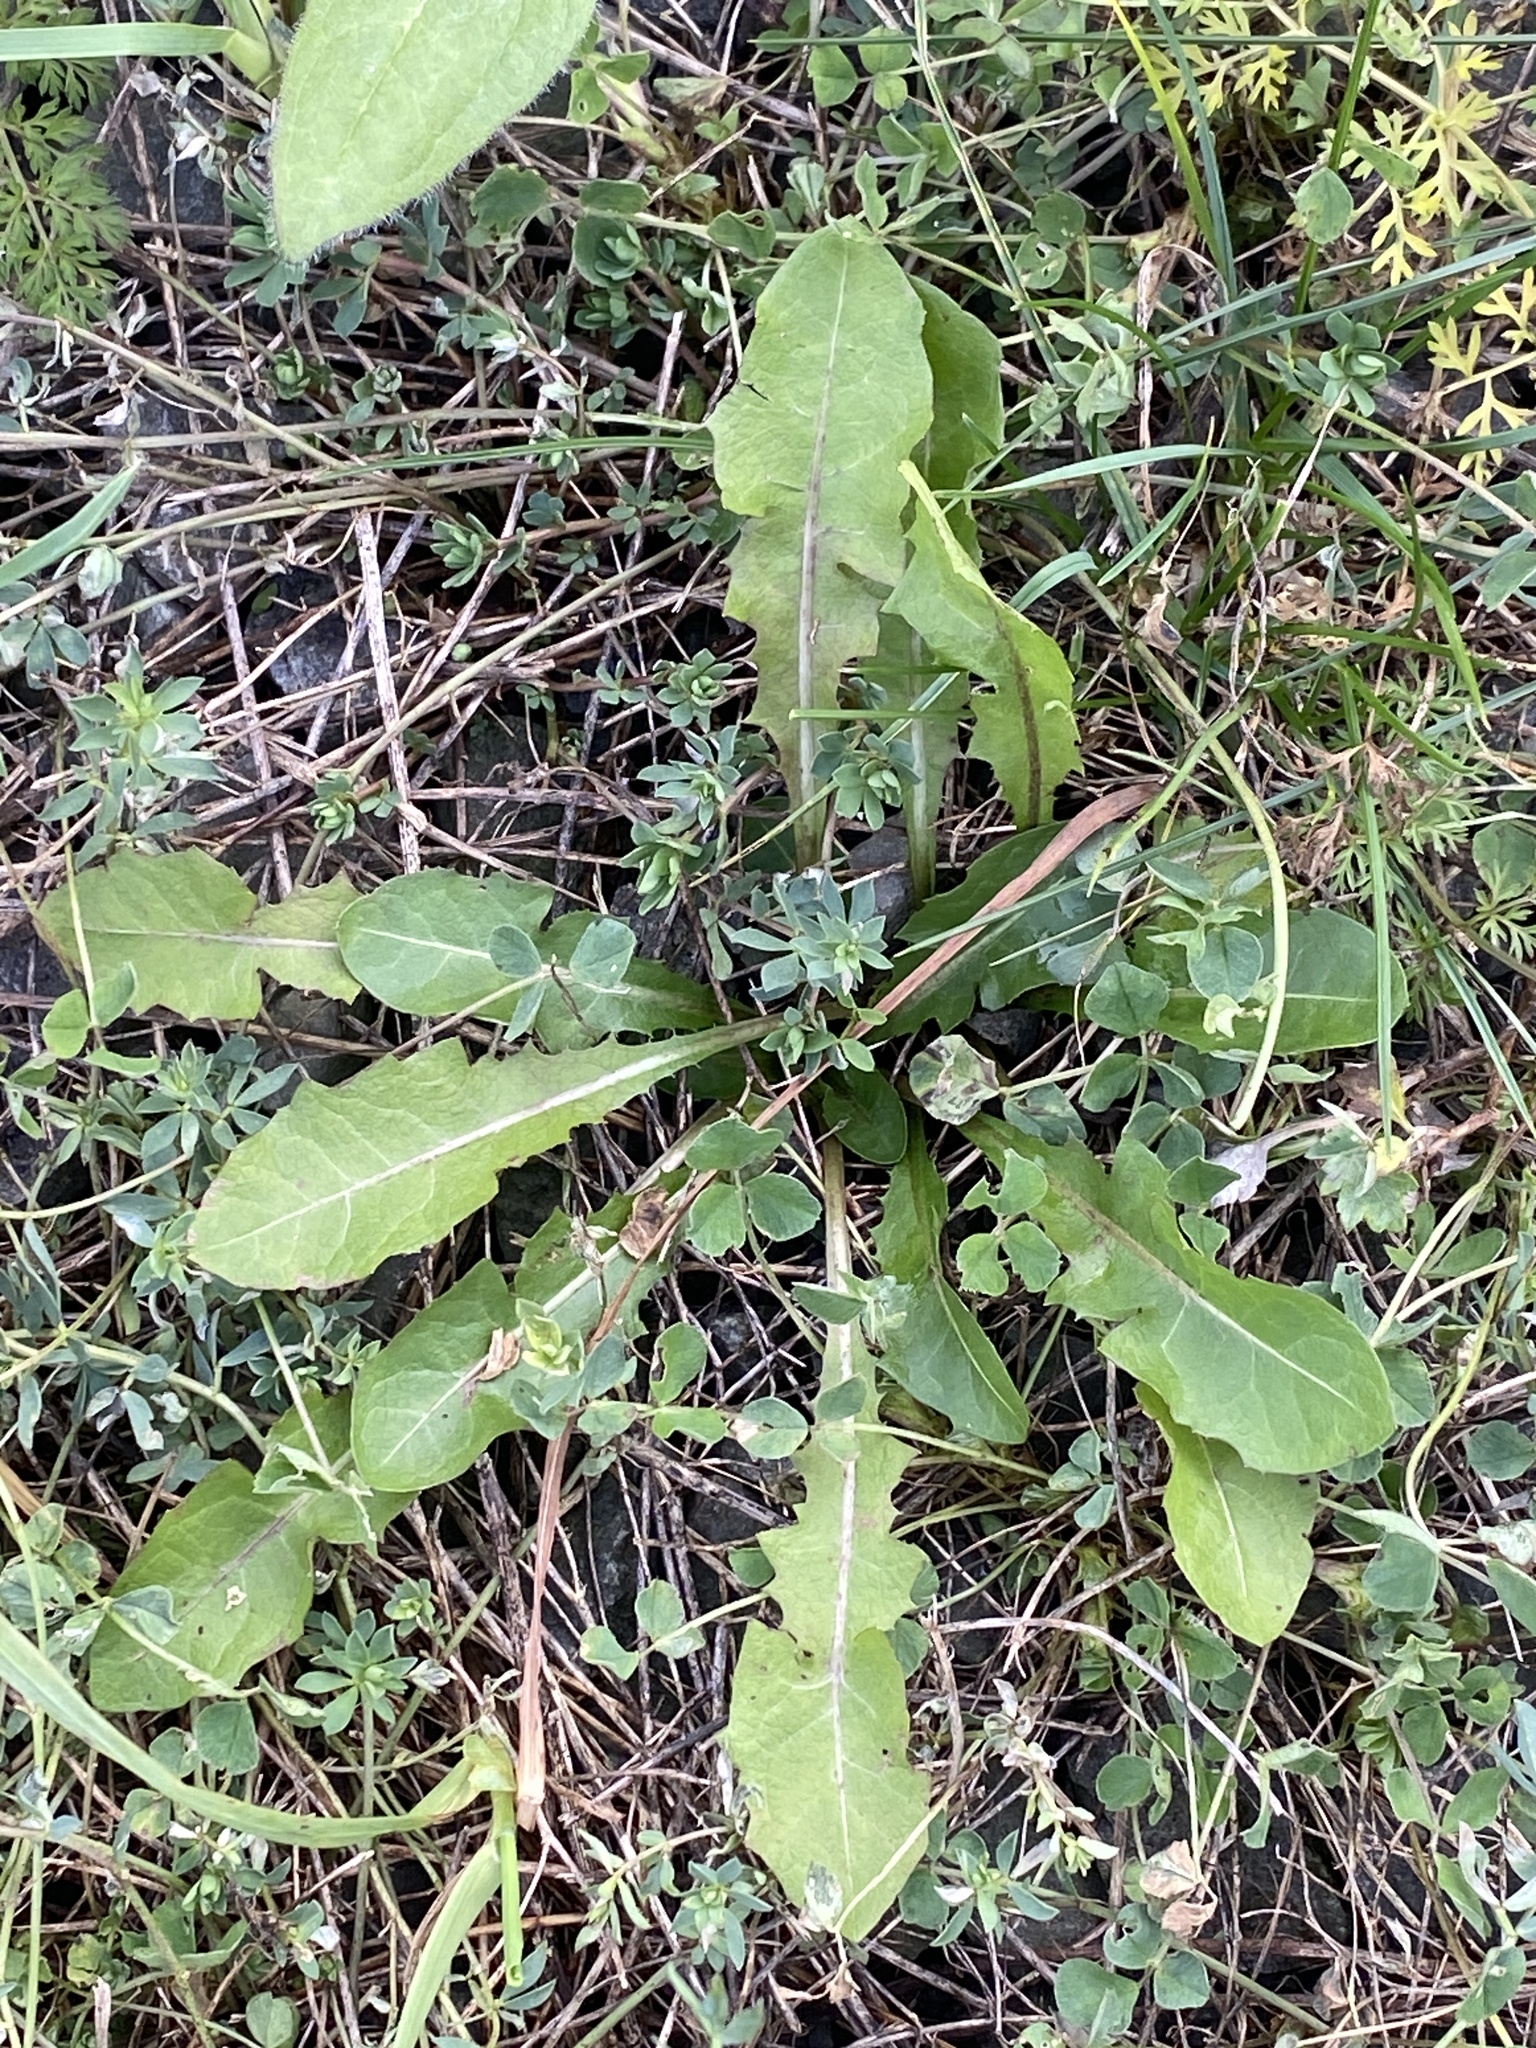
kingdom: Plantae
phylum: Tracheophyta
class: Magnoliopsida
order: Asterales
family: Asteraceae
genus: Taraxacum
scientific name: Taraxacum
